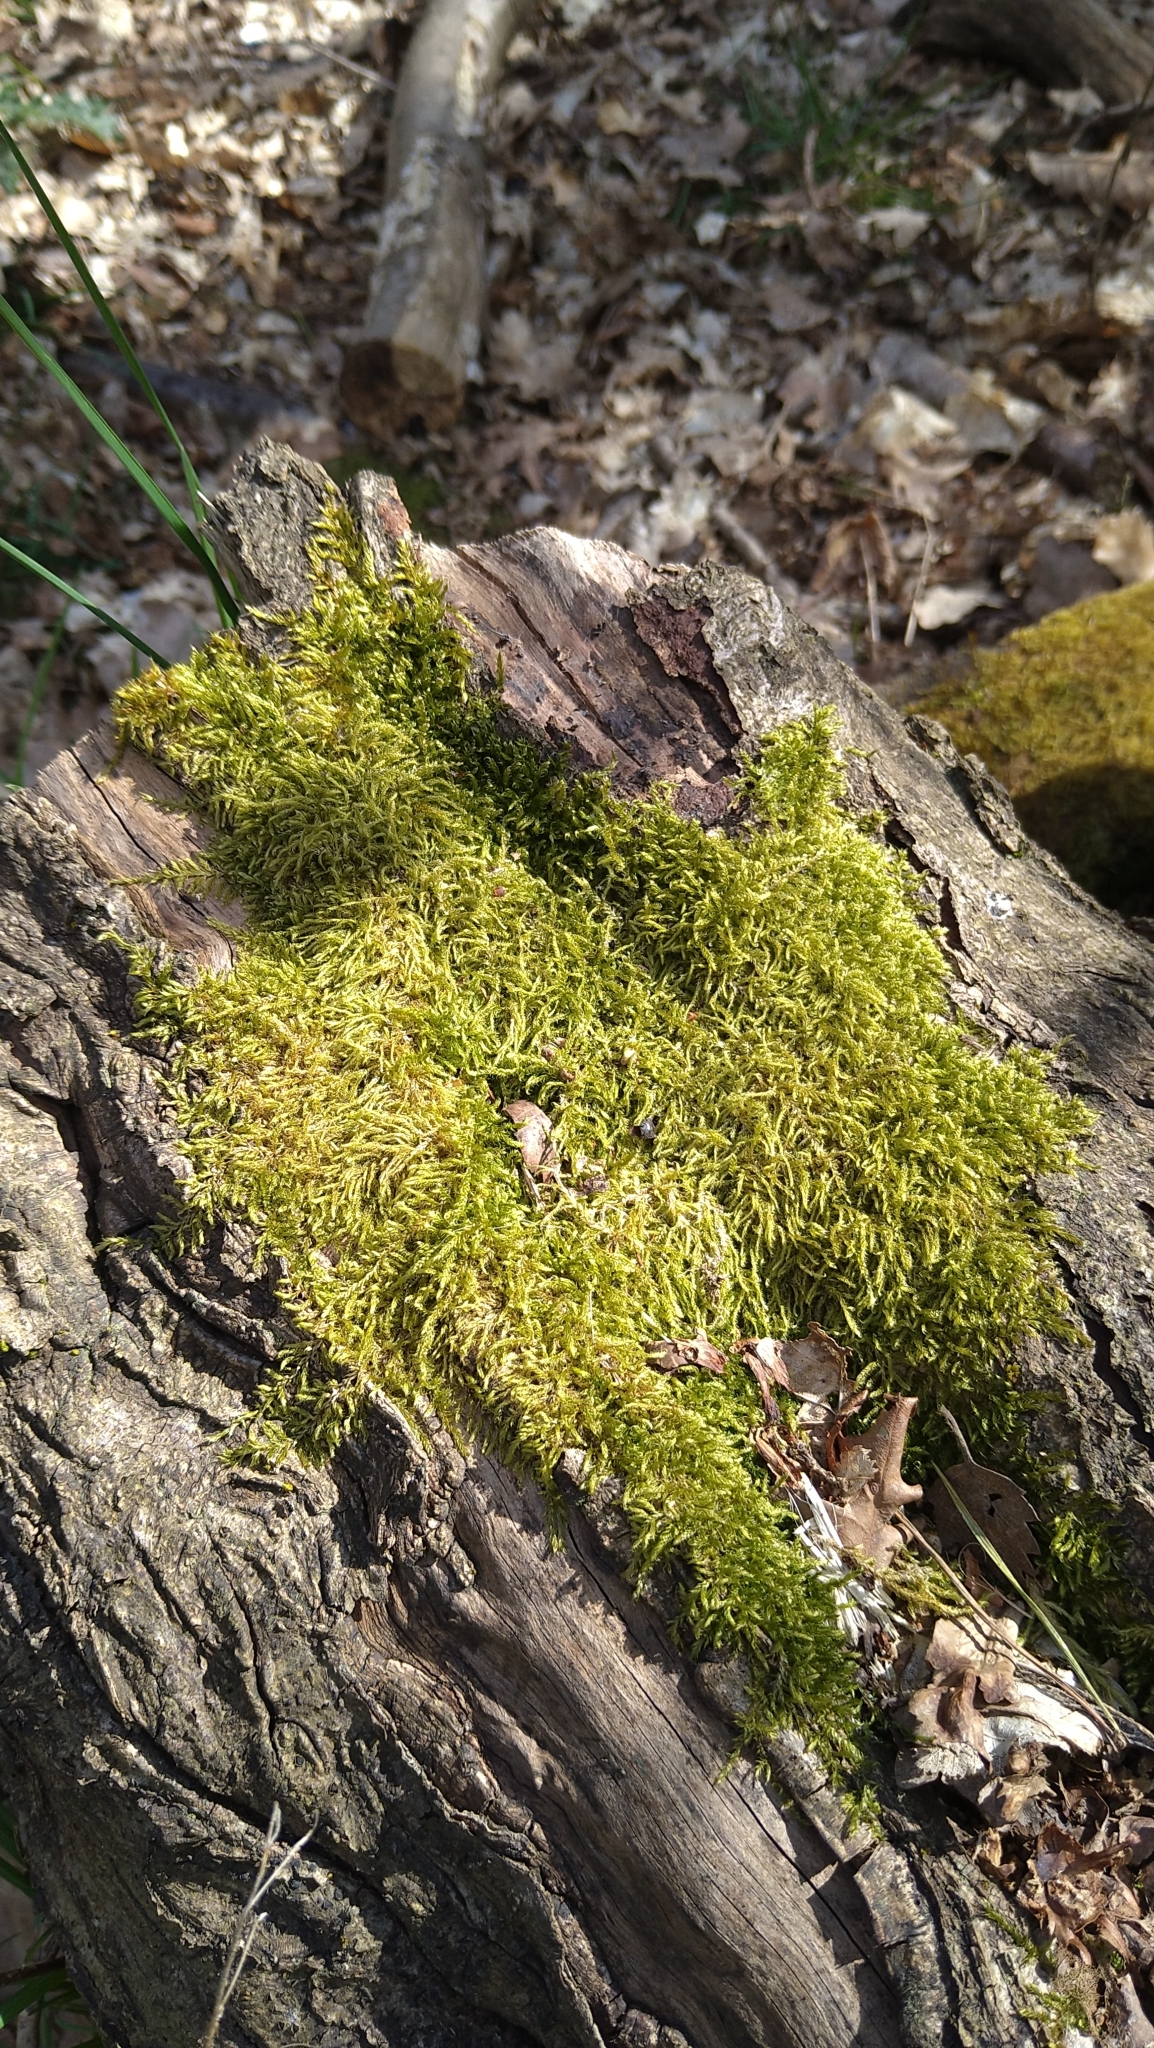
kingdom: Plantae
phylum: Bryophyta
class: Bryopsida
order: Hypnales
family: Hypnaceae
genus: Hypnum
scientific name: Hypnum cupressiforme
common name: Cypress-leaved plait-moss
